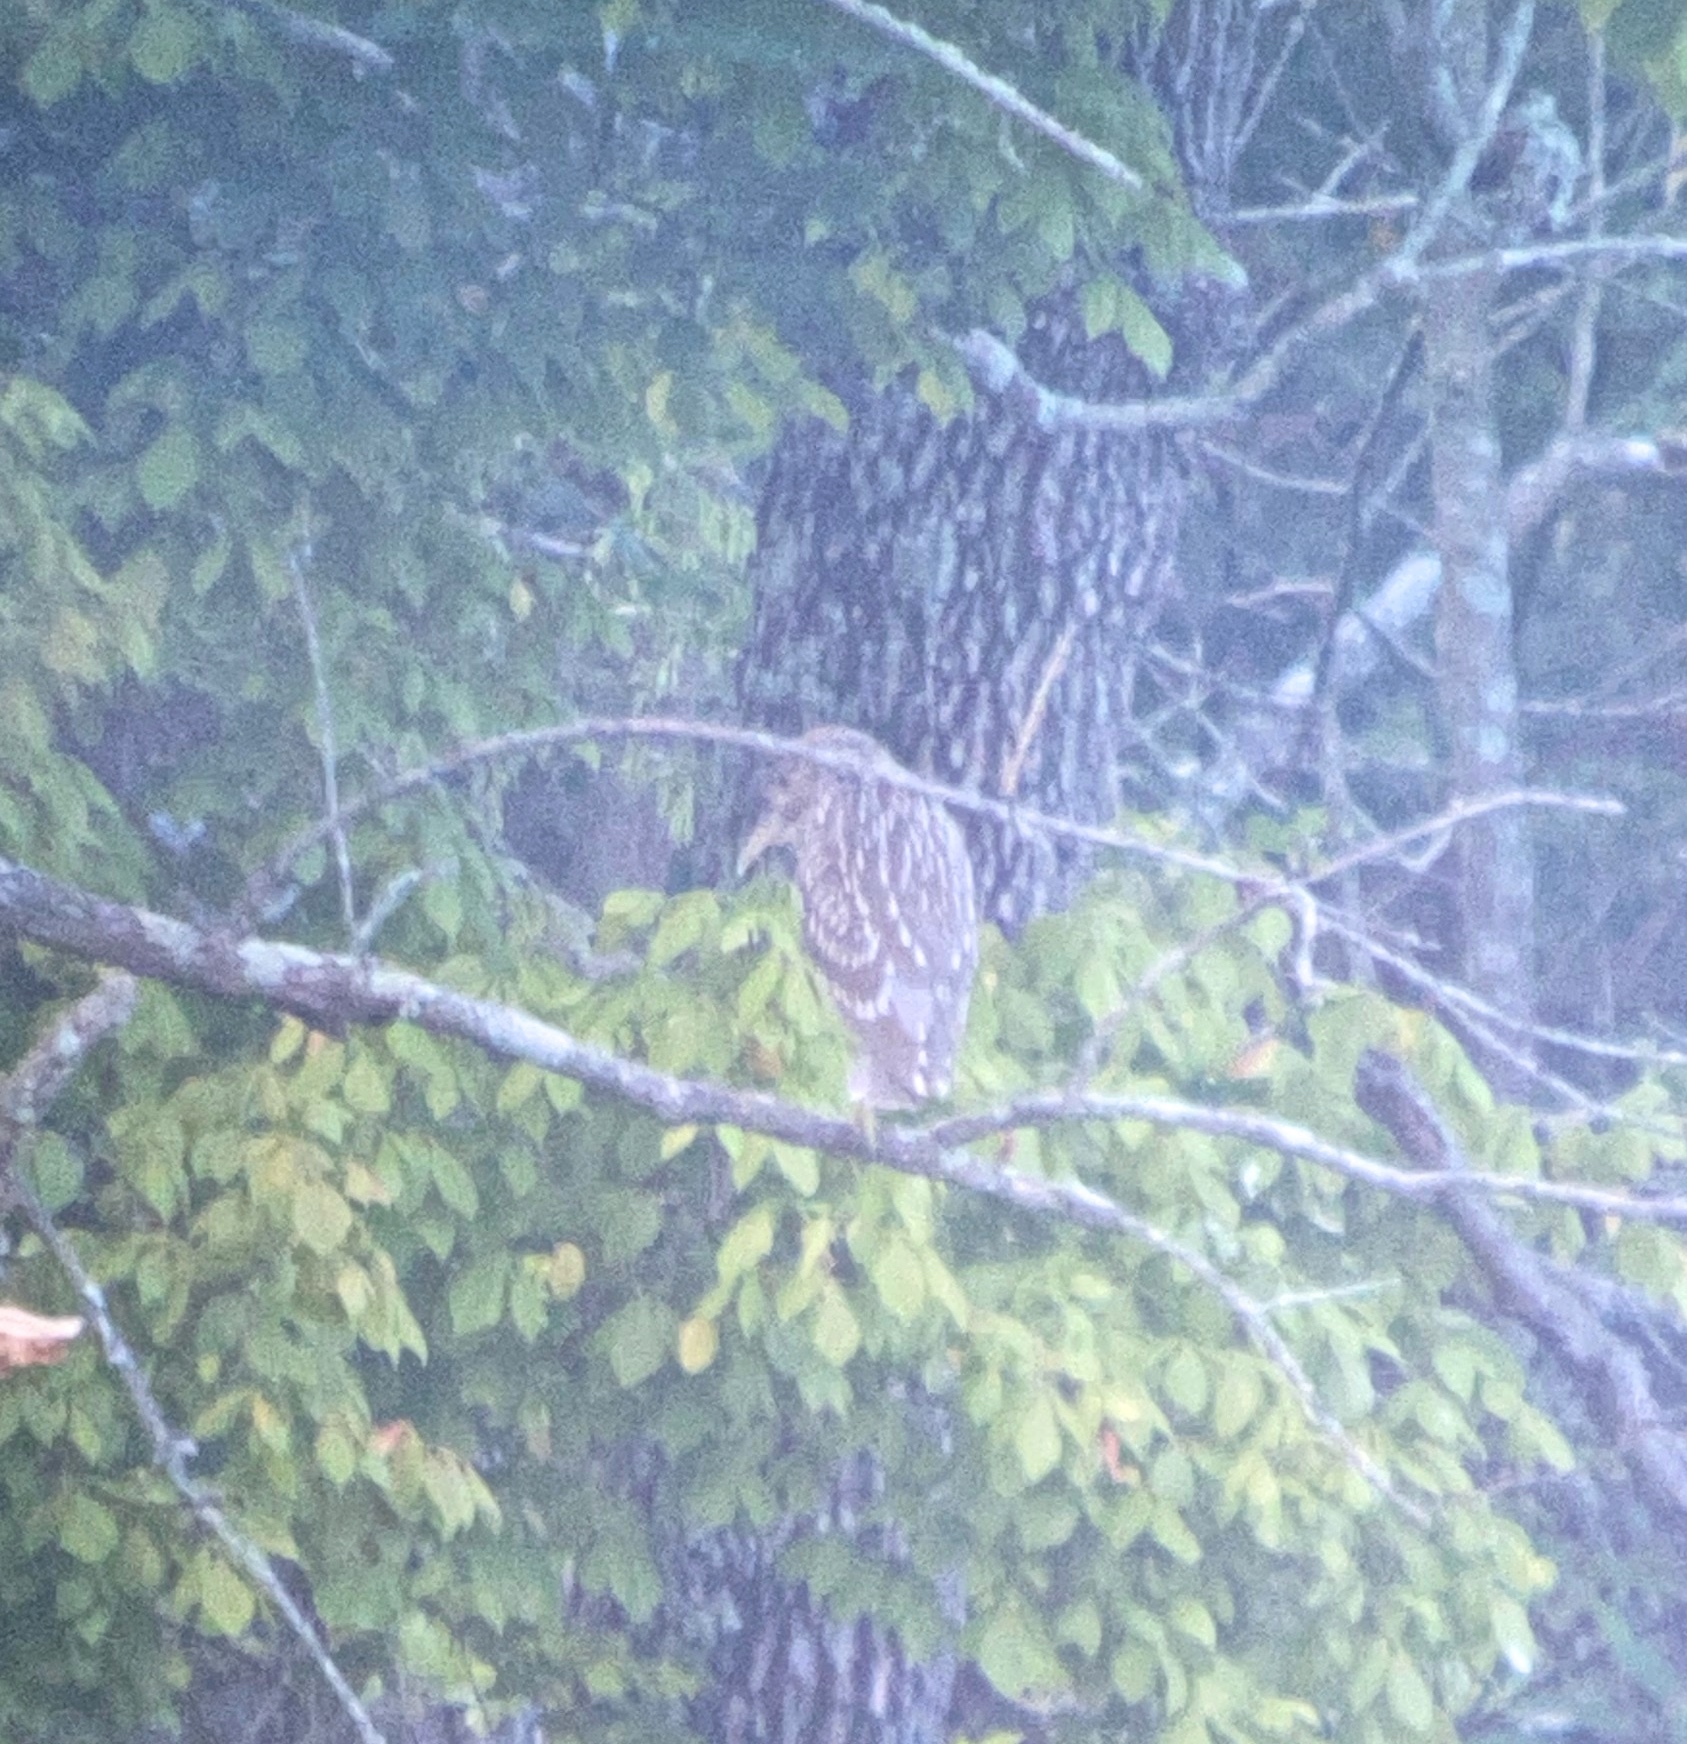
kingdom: Animalia
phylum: Chordata
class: Aves
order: Pelecaniformes
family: Ardeidae
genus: Nycticorax
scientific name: Nycticorax nycticorax
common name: Black-crowned night heron
